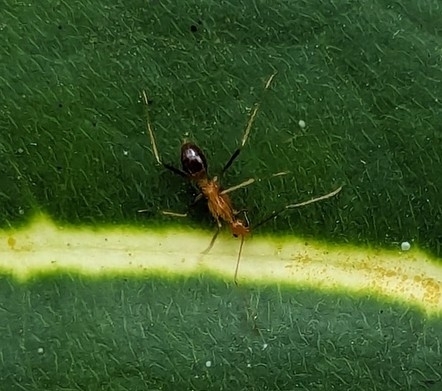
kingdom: Animalia
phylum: Arthropoda
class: Insecta
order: Hymenoptera
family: Formicidae
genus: Anoplolepis
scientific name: Anoplolepis gracilipes
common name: Ant
